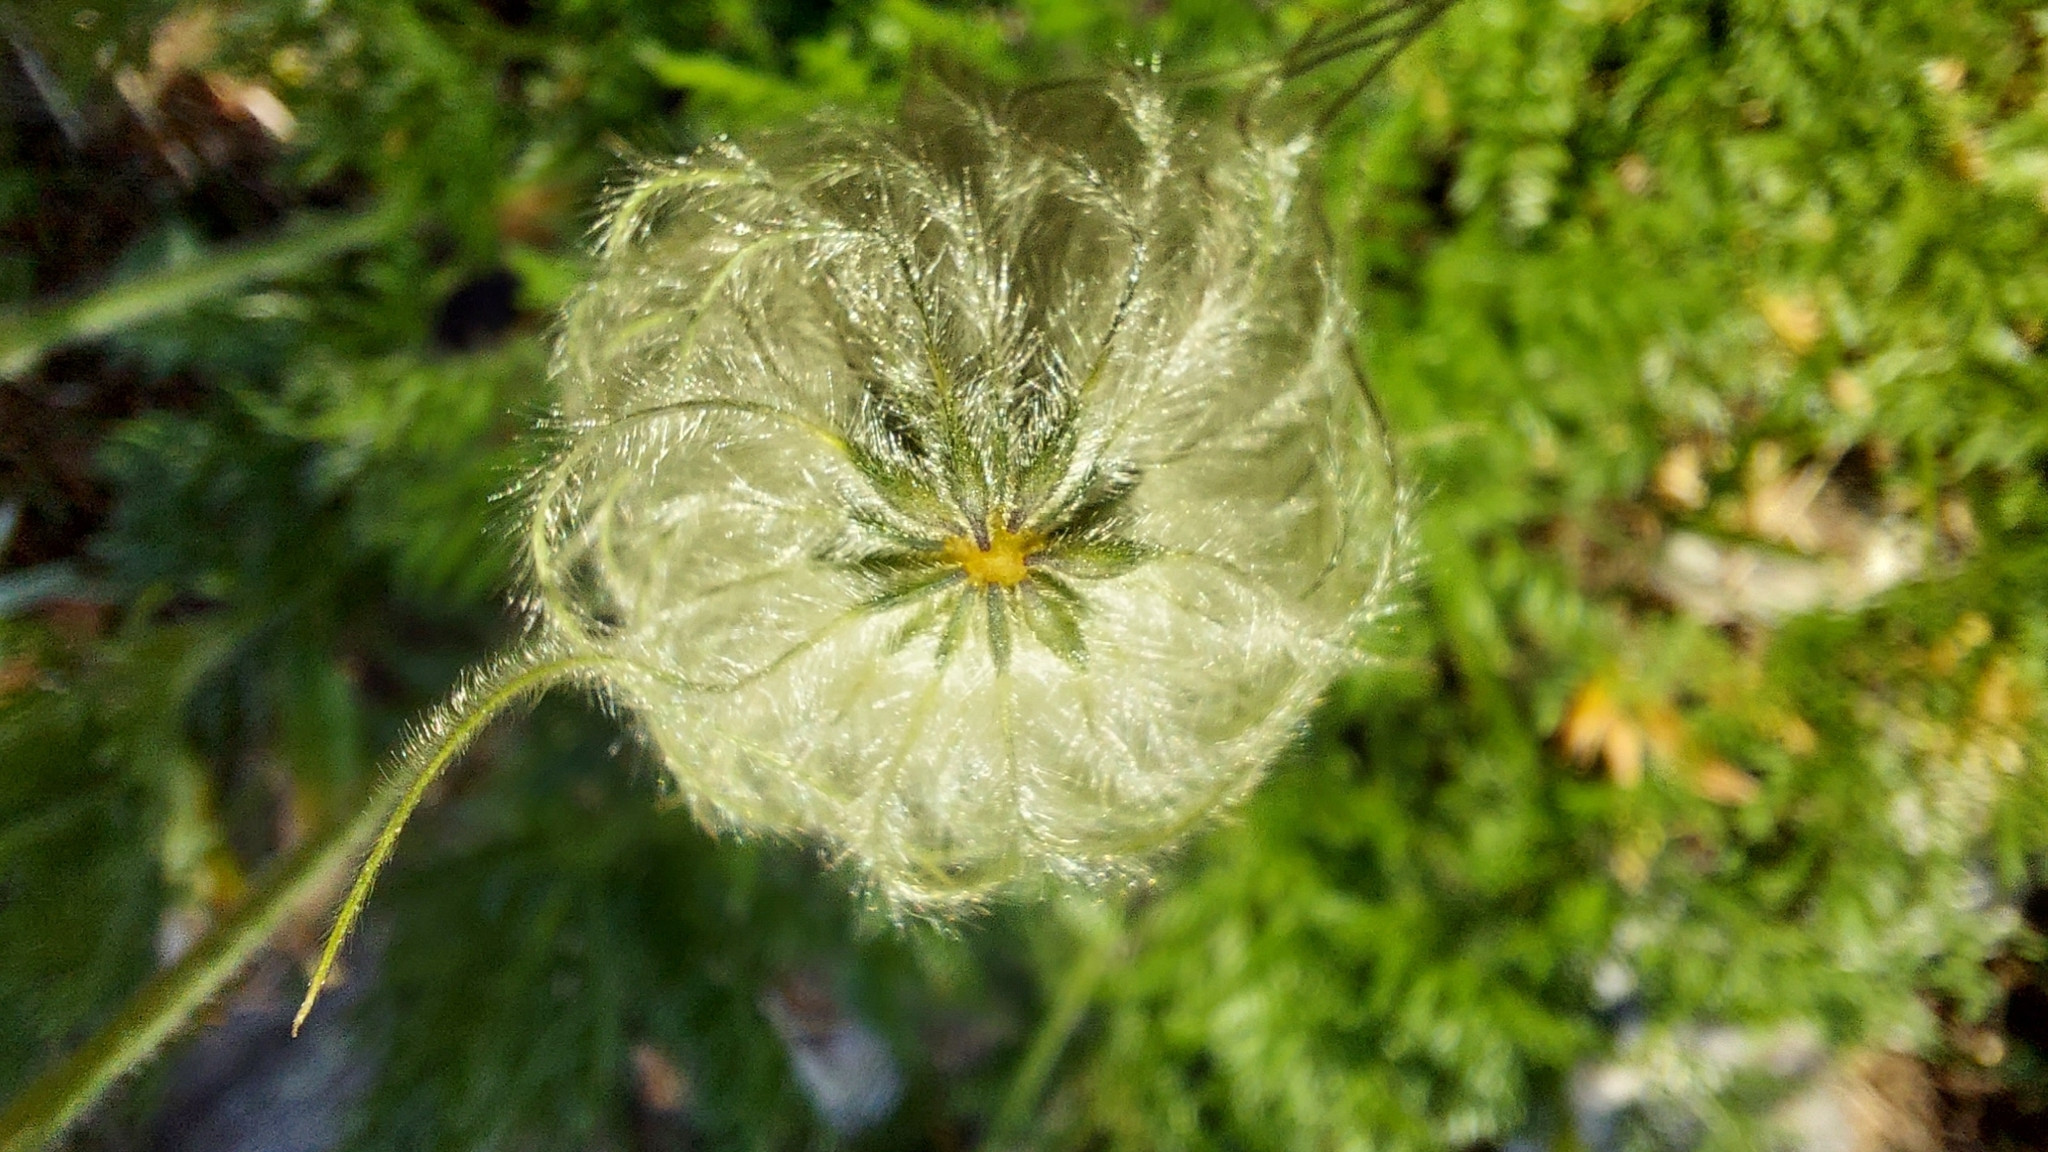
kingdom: Plantae
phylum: Tracheophyta
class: Magnoliopsida
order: Ranunculales
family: Ranunculaceae
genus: Pulsatilla
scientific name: Pulsatilla occidentalis
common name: Mountain pasqueflower
